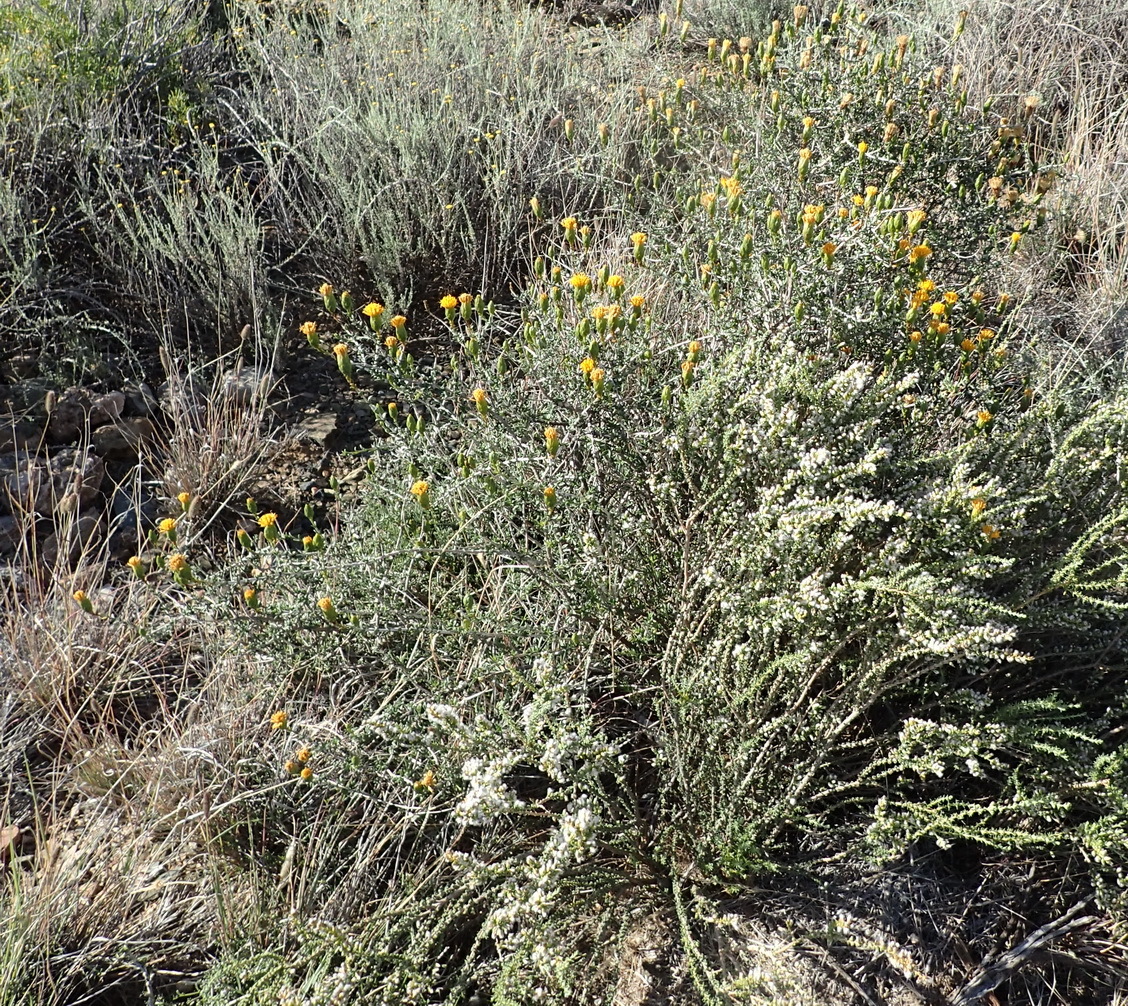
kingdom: Plantae
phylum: Tracheophyta
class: Magnoliopsida
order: Asterales
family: Asteraceae
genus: Pteronia
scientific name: Pteronia viscosa
